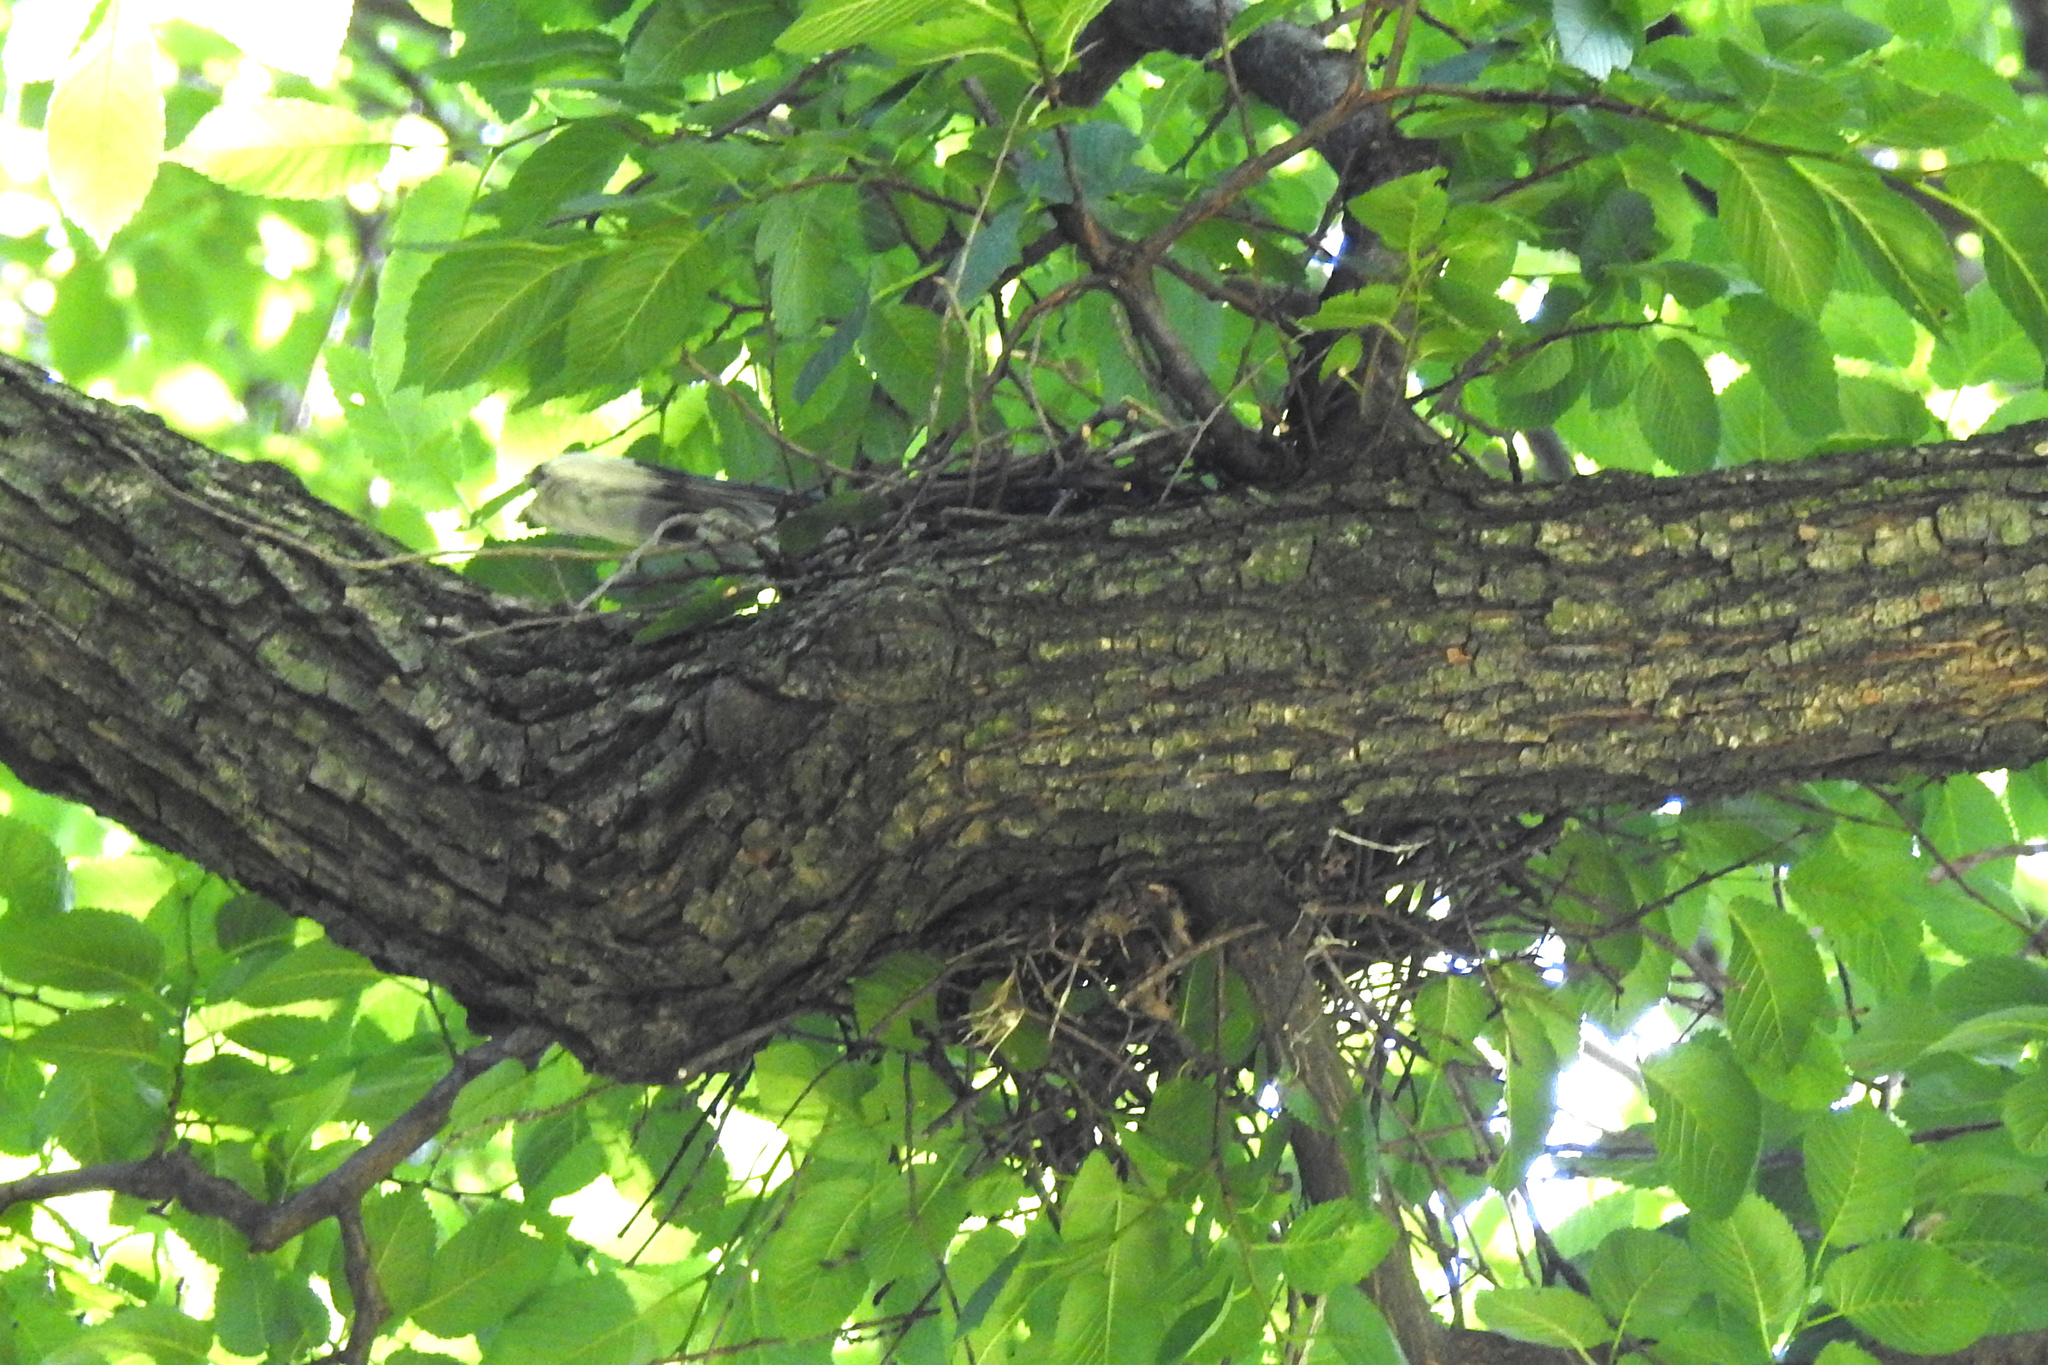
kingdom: Animalia
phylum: Chordata
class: Aves
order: Passeriformes
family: Corvidae
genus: Cyanocitta
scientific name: Cyanocitta cristata
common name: Blue jay
